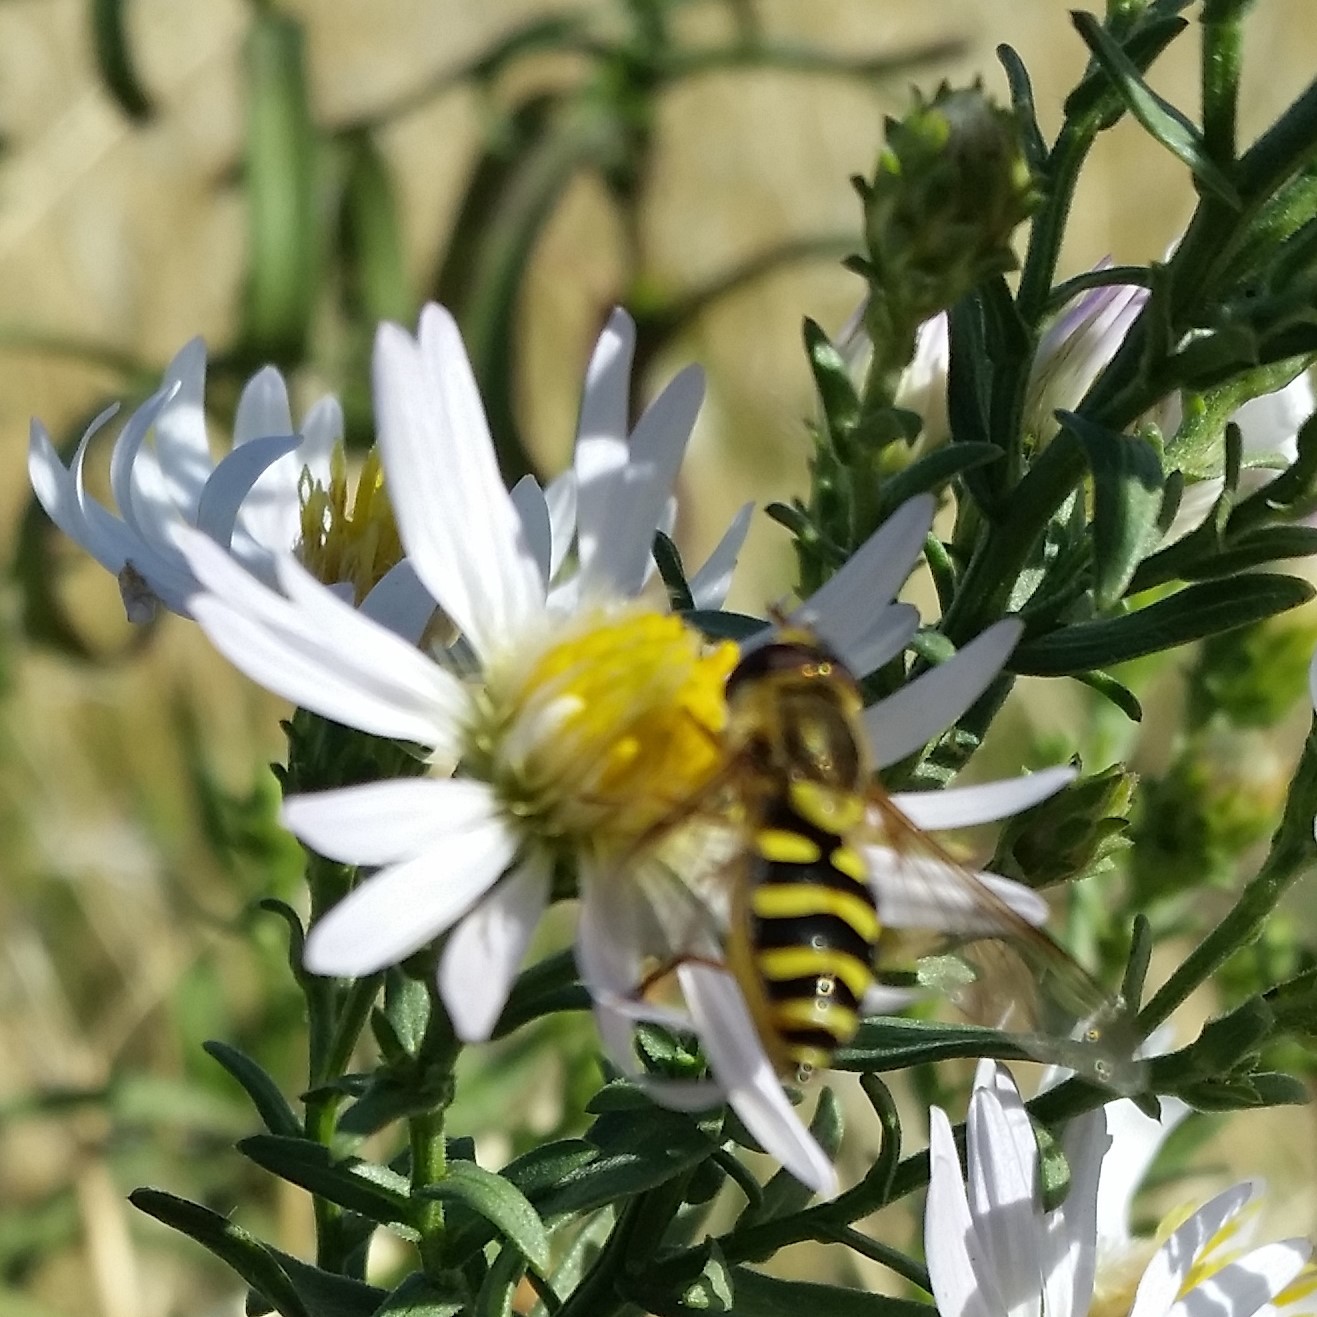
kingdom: Animalia
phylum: Arthropoda
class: Insecta
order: Diptera
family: Syrphidae
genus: Syrphus
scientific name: Syrphus opinator
